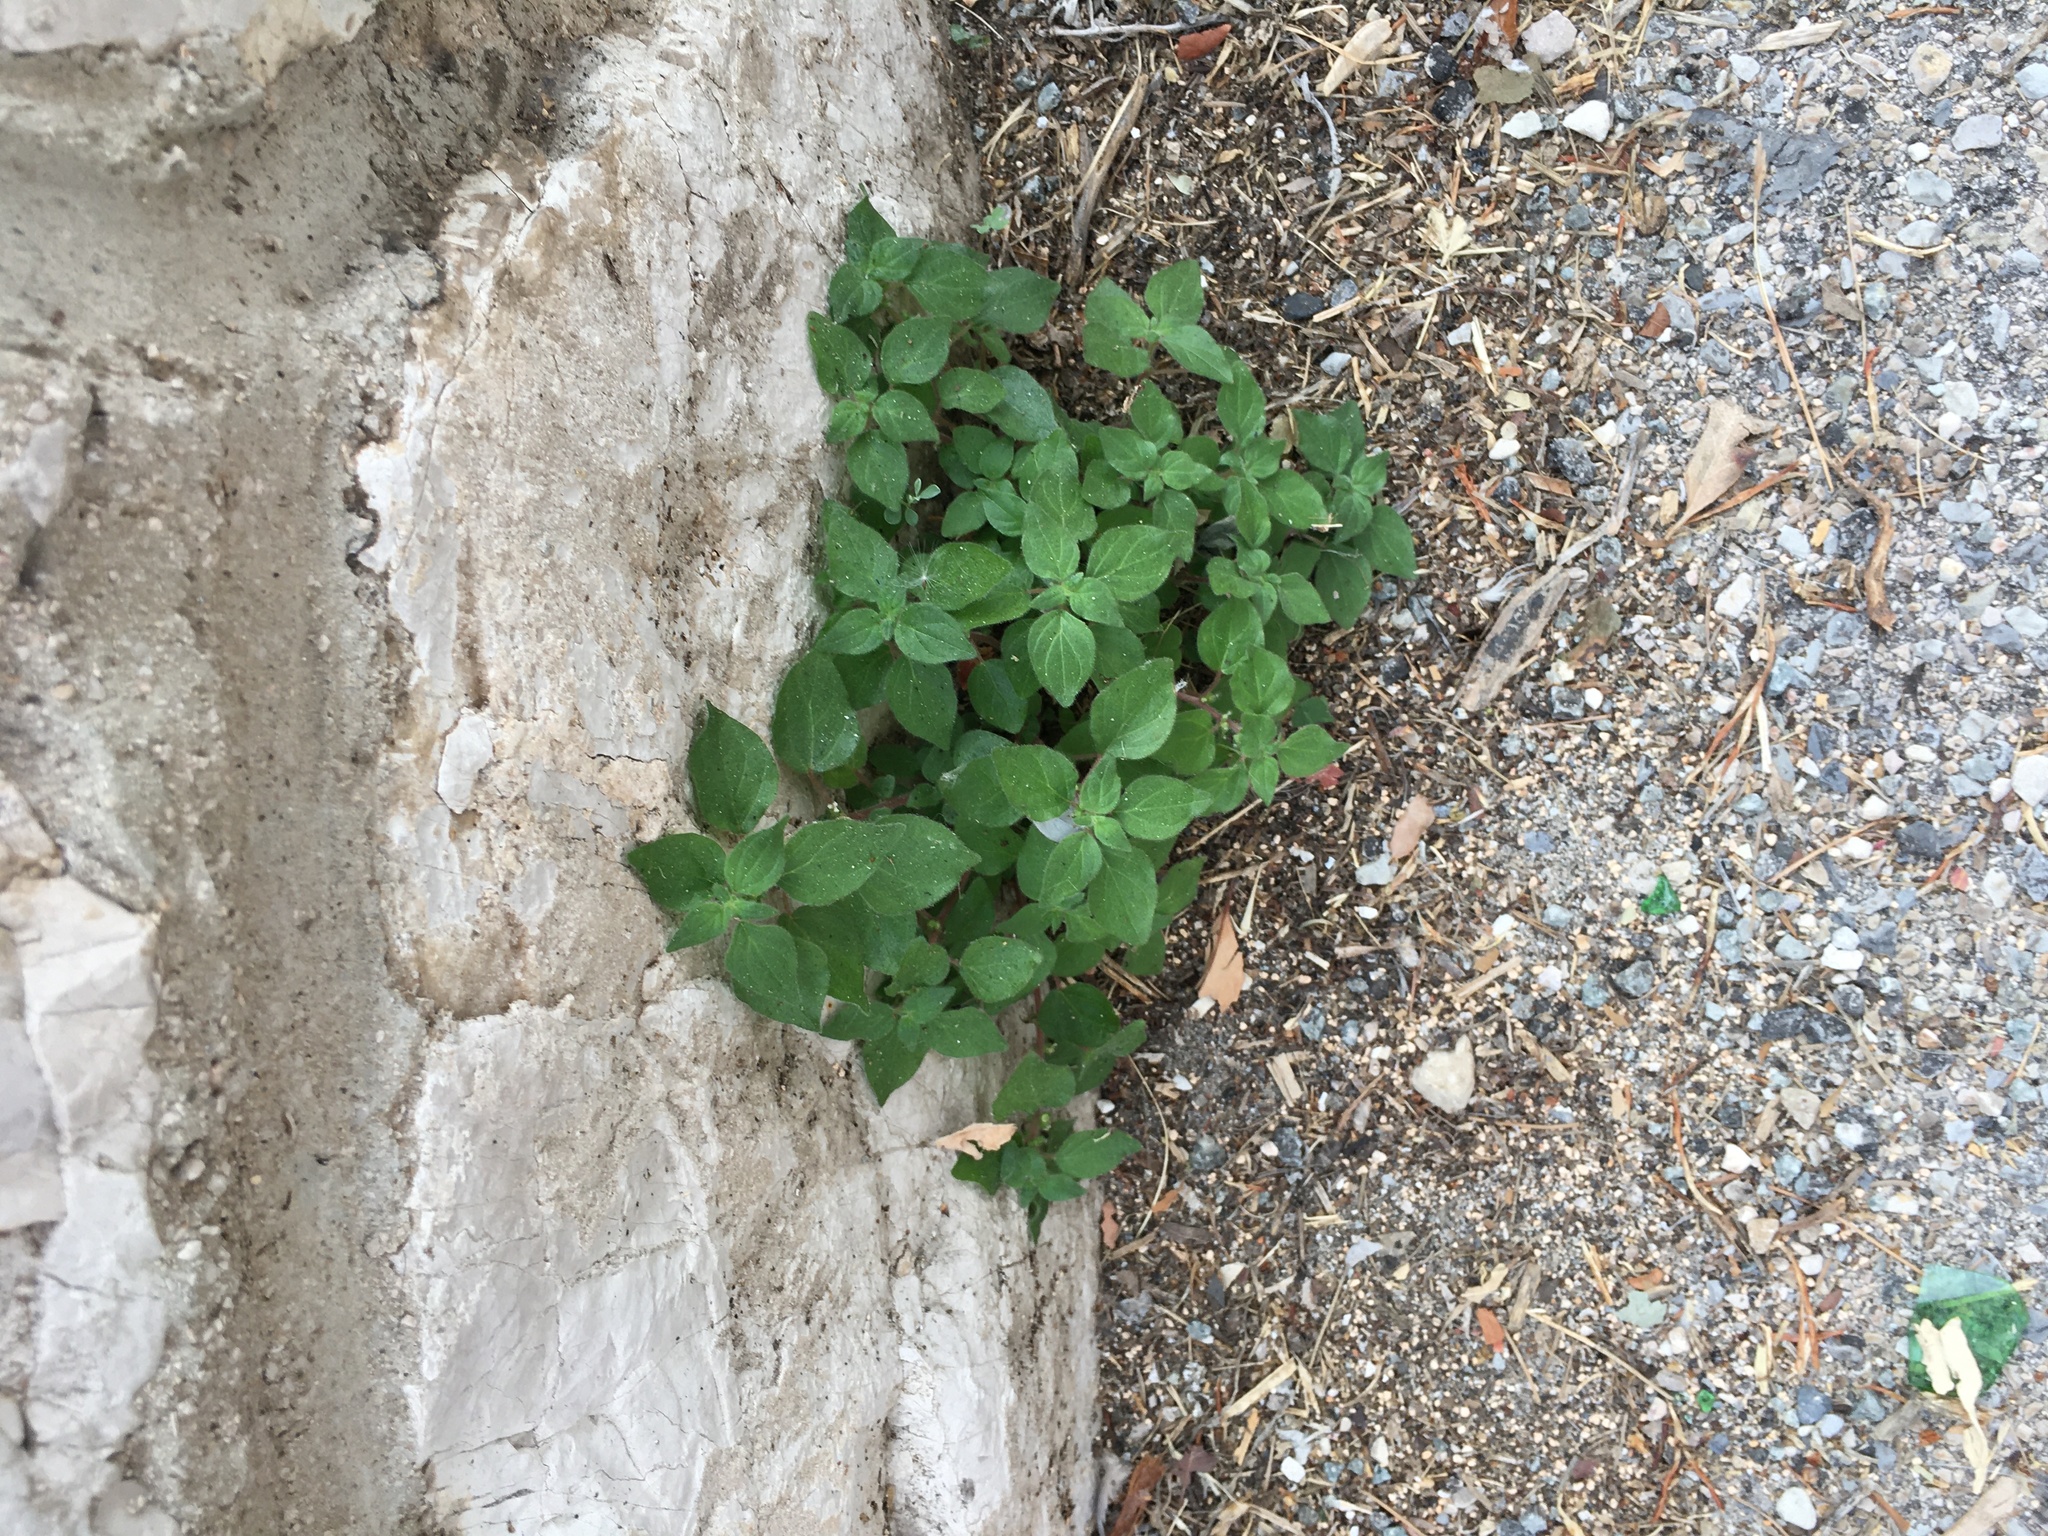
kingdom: Plantae
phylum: Tracheophyta
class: Magnoliopsida
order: Rosales
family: Urticaceae
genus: Parietaria
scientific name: Parietaria judaica
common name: Pellitory-of-the-wall
